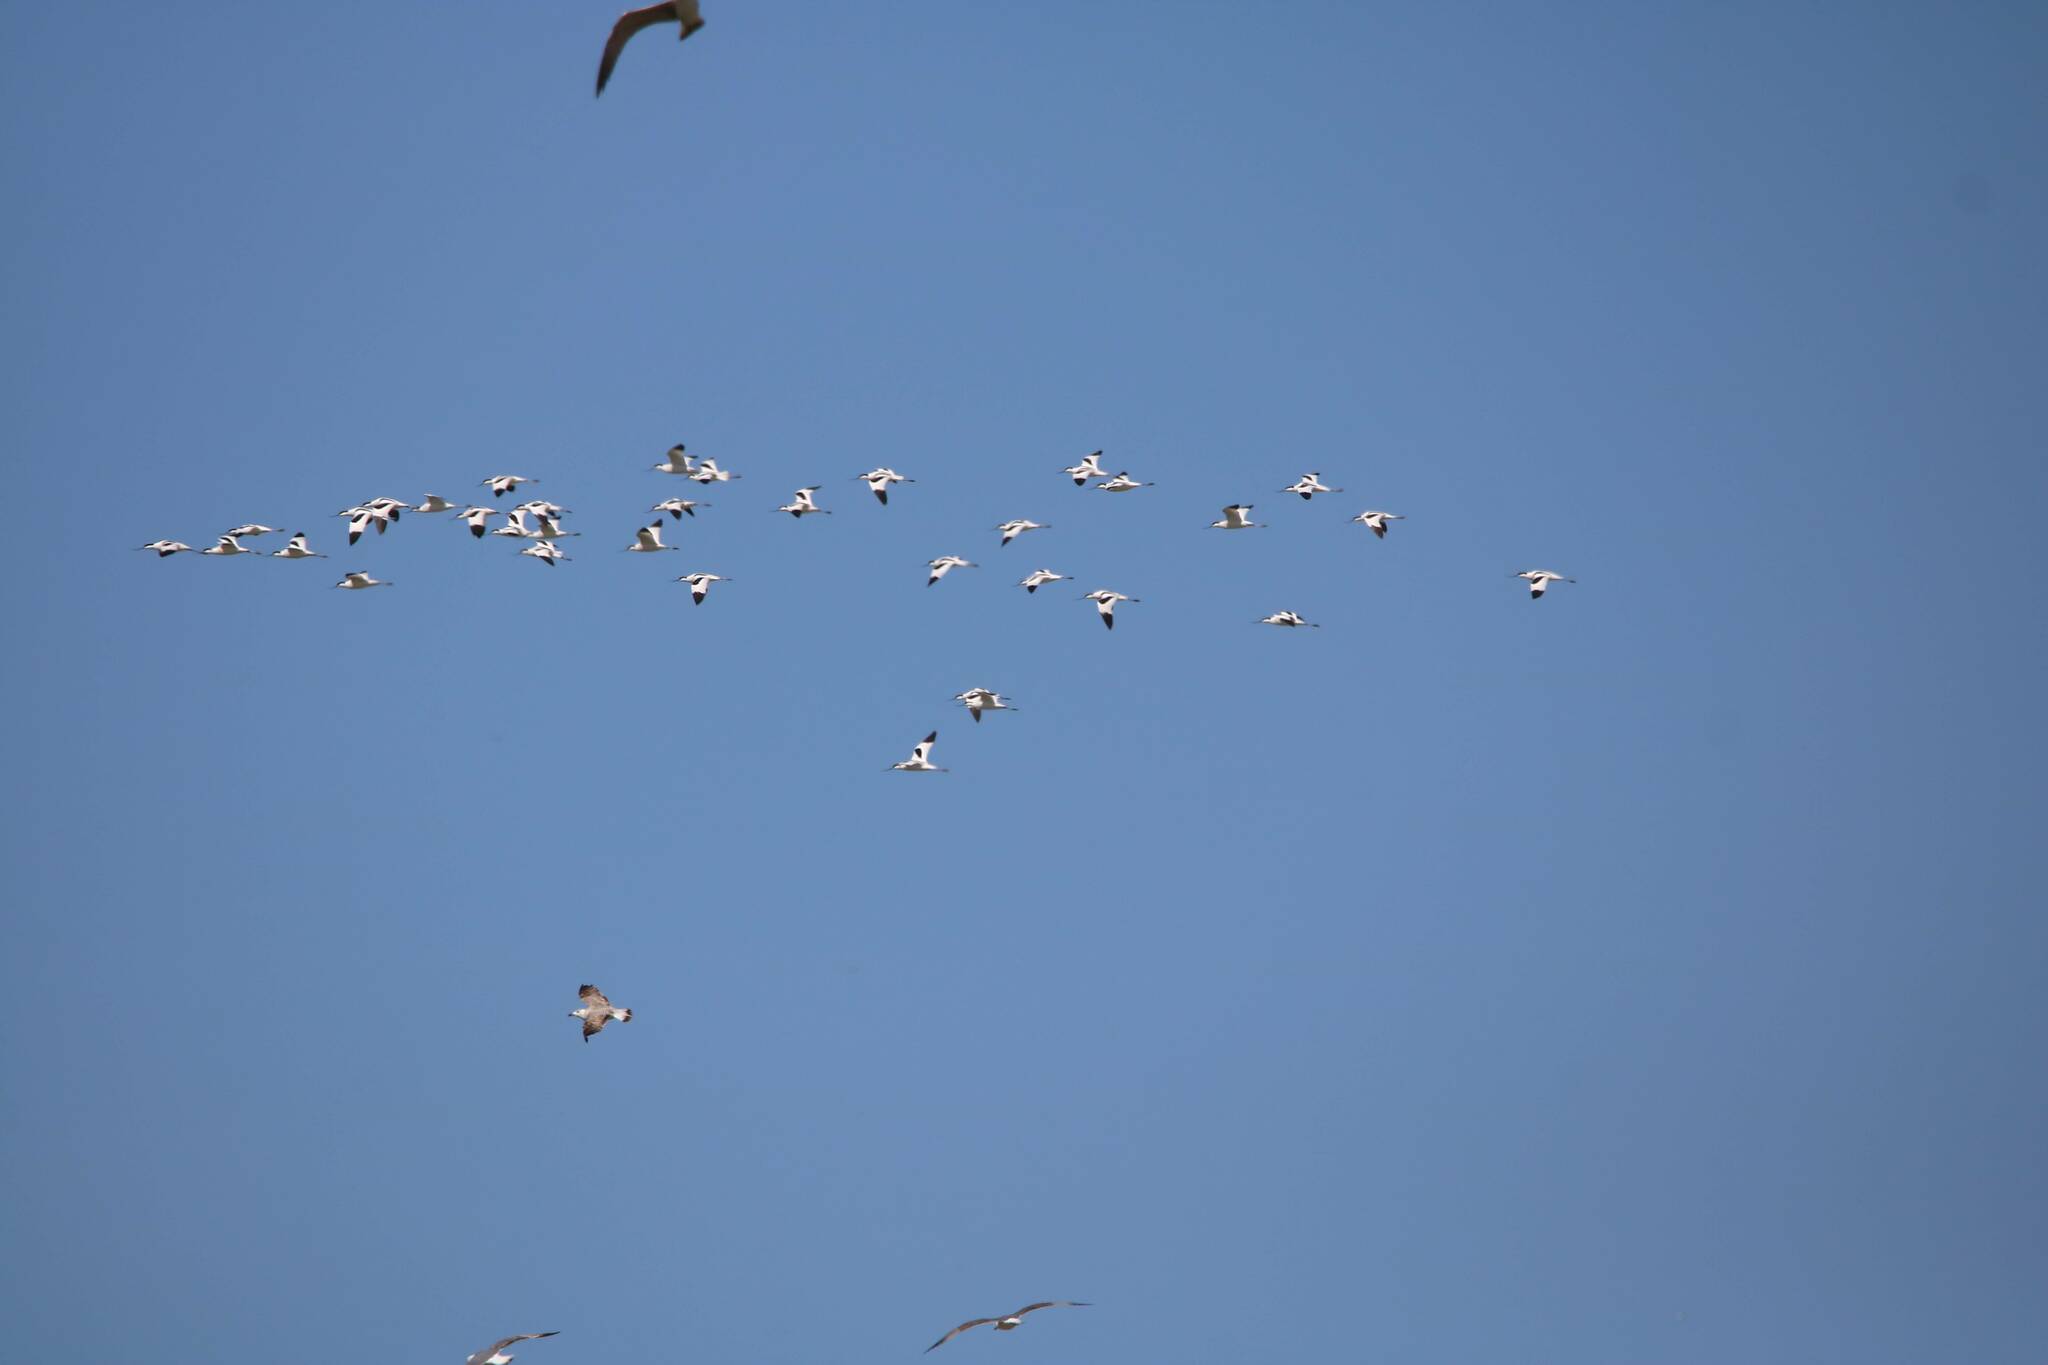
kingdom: Animalia
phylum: Chordata
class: Aves
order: Charadriiformes
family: Recurvirostridae
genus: Recurvirostra
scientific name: Recurvirostra avosetta
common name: Pied avocet
